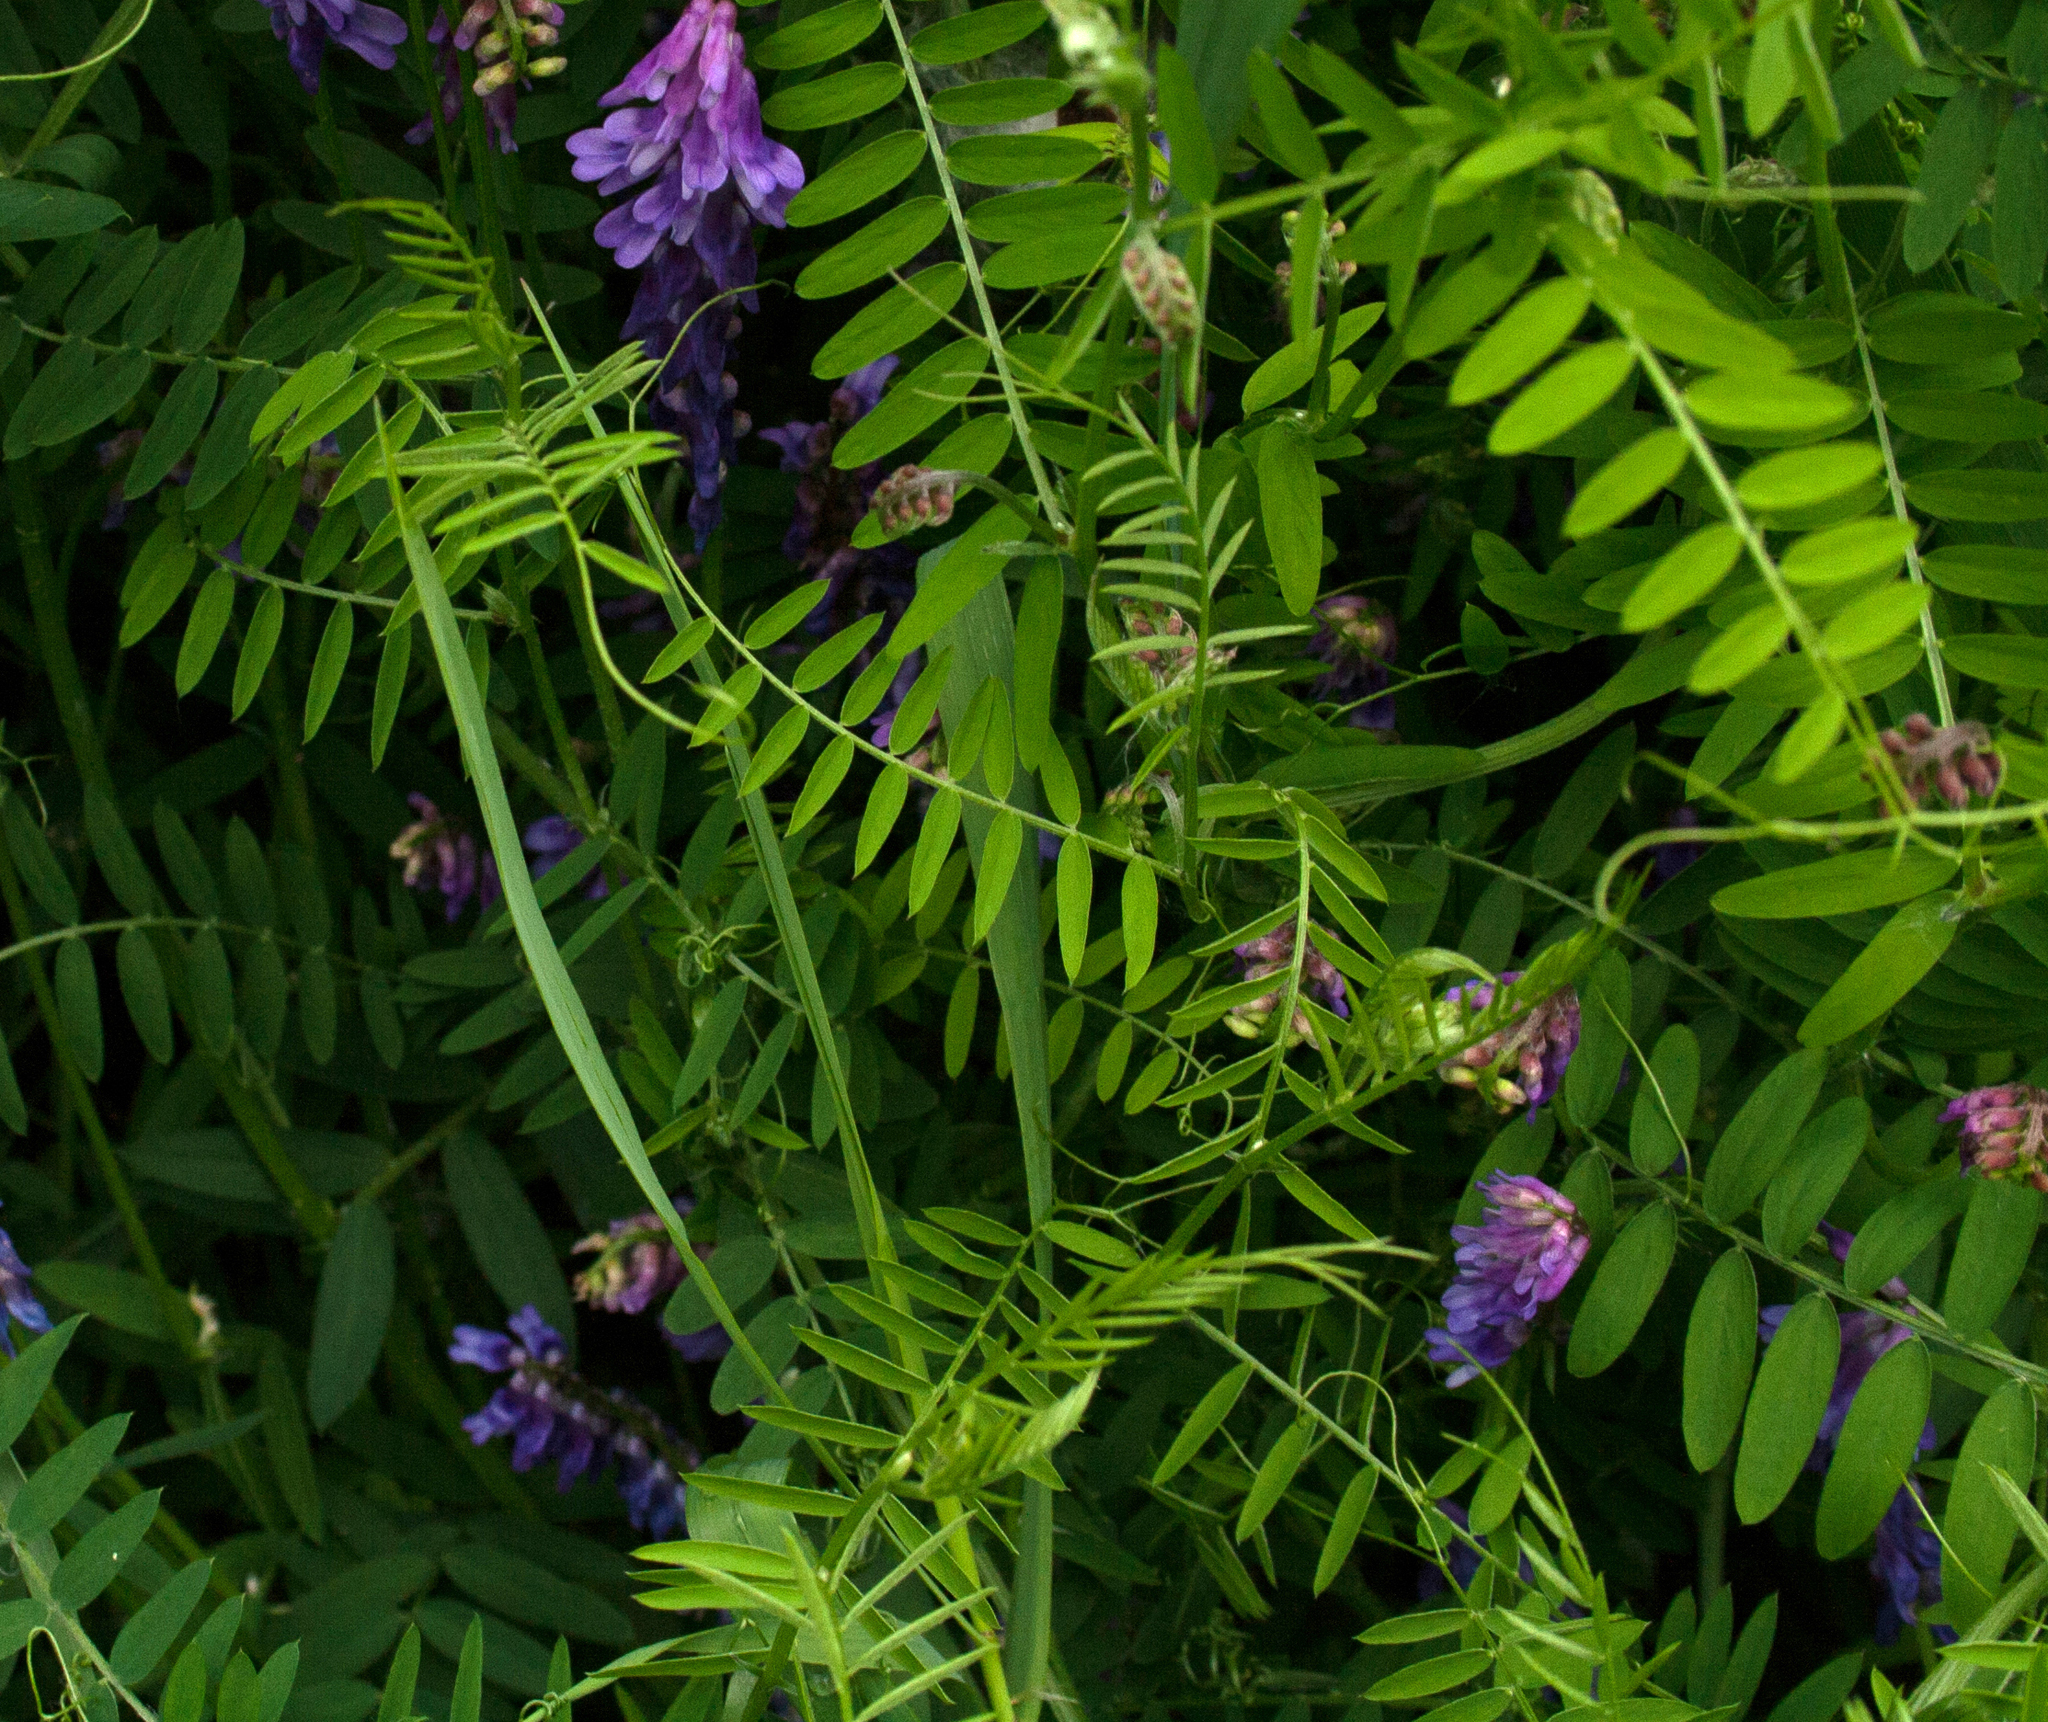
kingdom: Plantae
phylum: Tracheophyta
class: Magnoliopsida
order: Fabales
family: Fabaceae
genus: Vicia
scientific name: Vicia cracca
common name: Bird vetch
